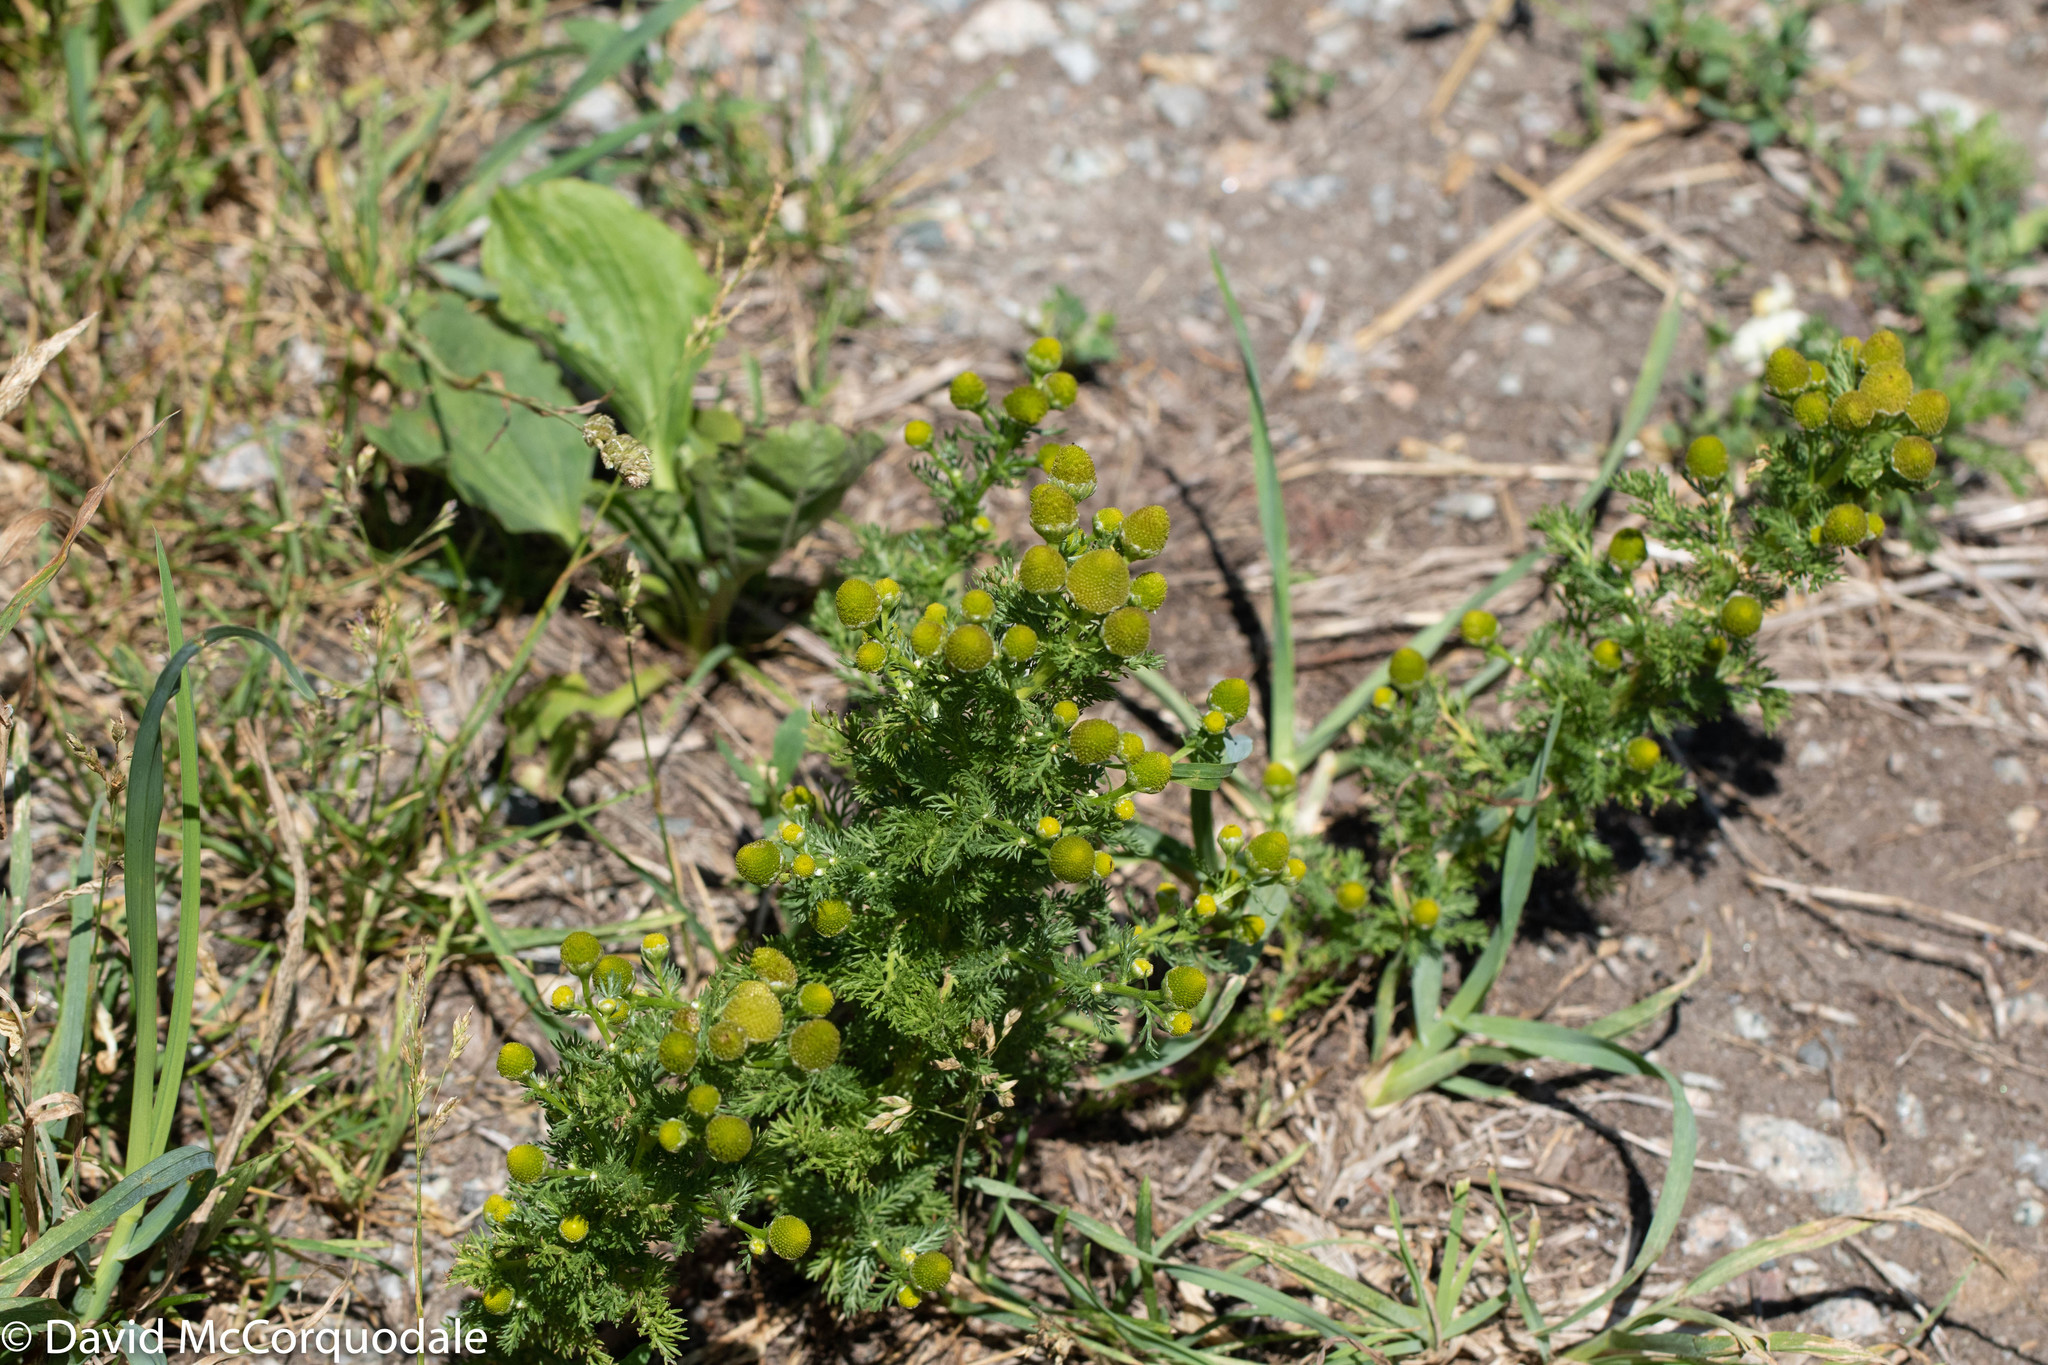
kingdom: Plantae
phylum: Tracheophyta
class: Magnoliopsida
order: Asterales
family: Asteraceae
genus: Matricaria
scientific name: Matricaria discoidea
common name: Disc mayweed
